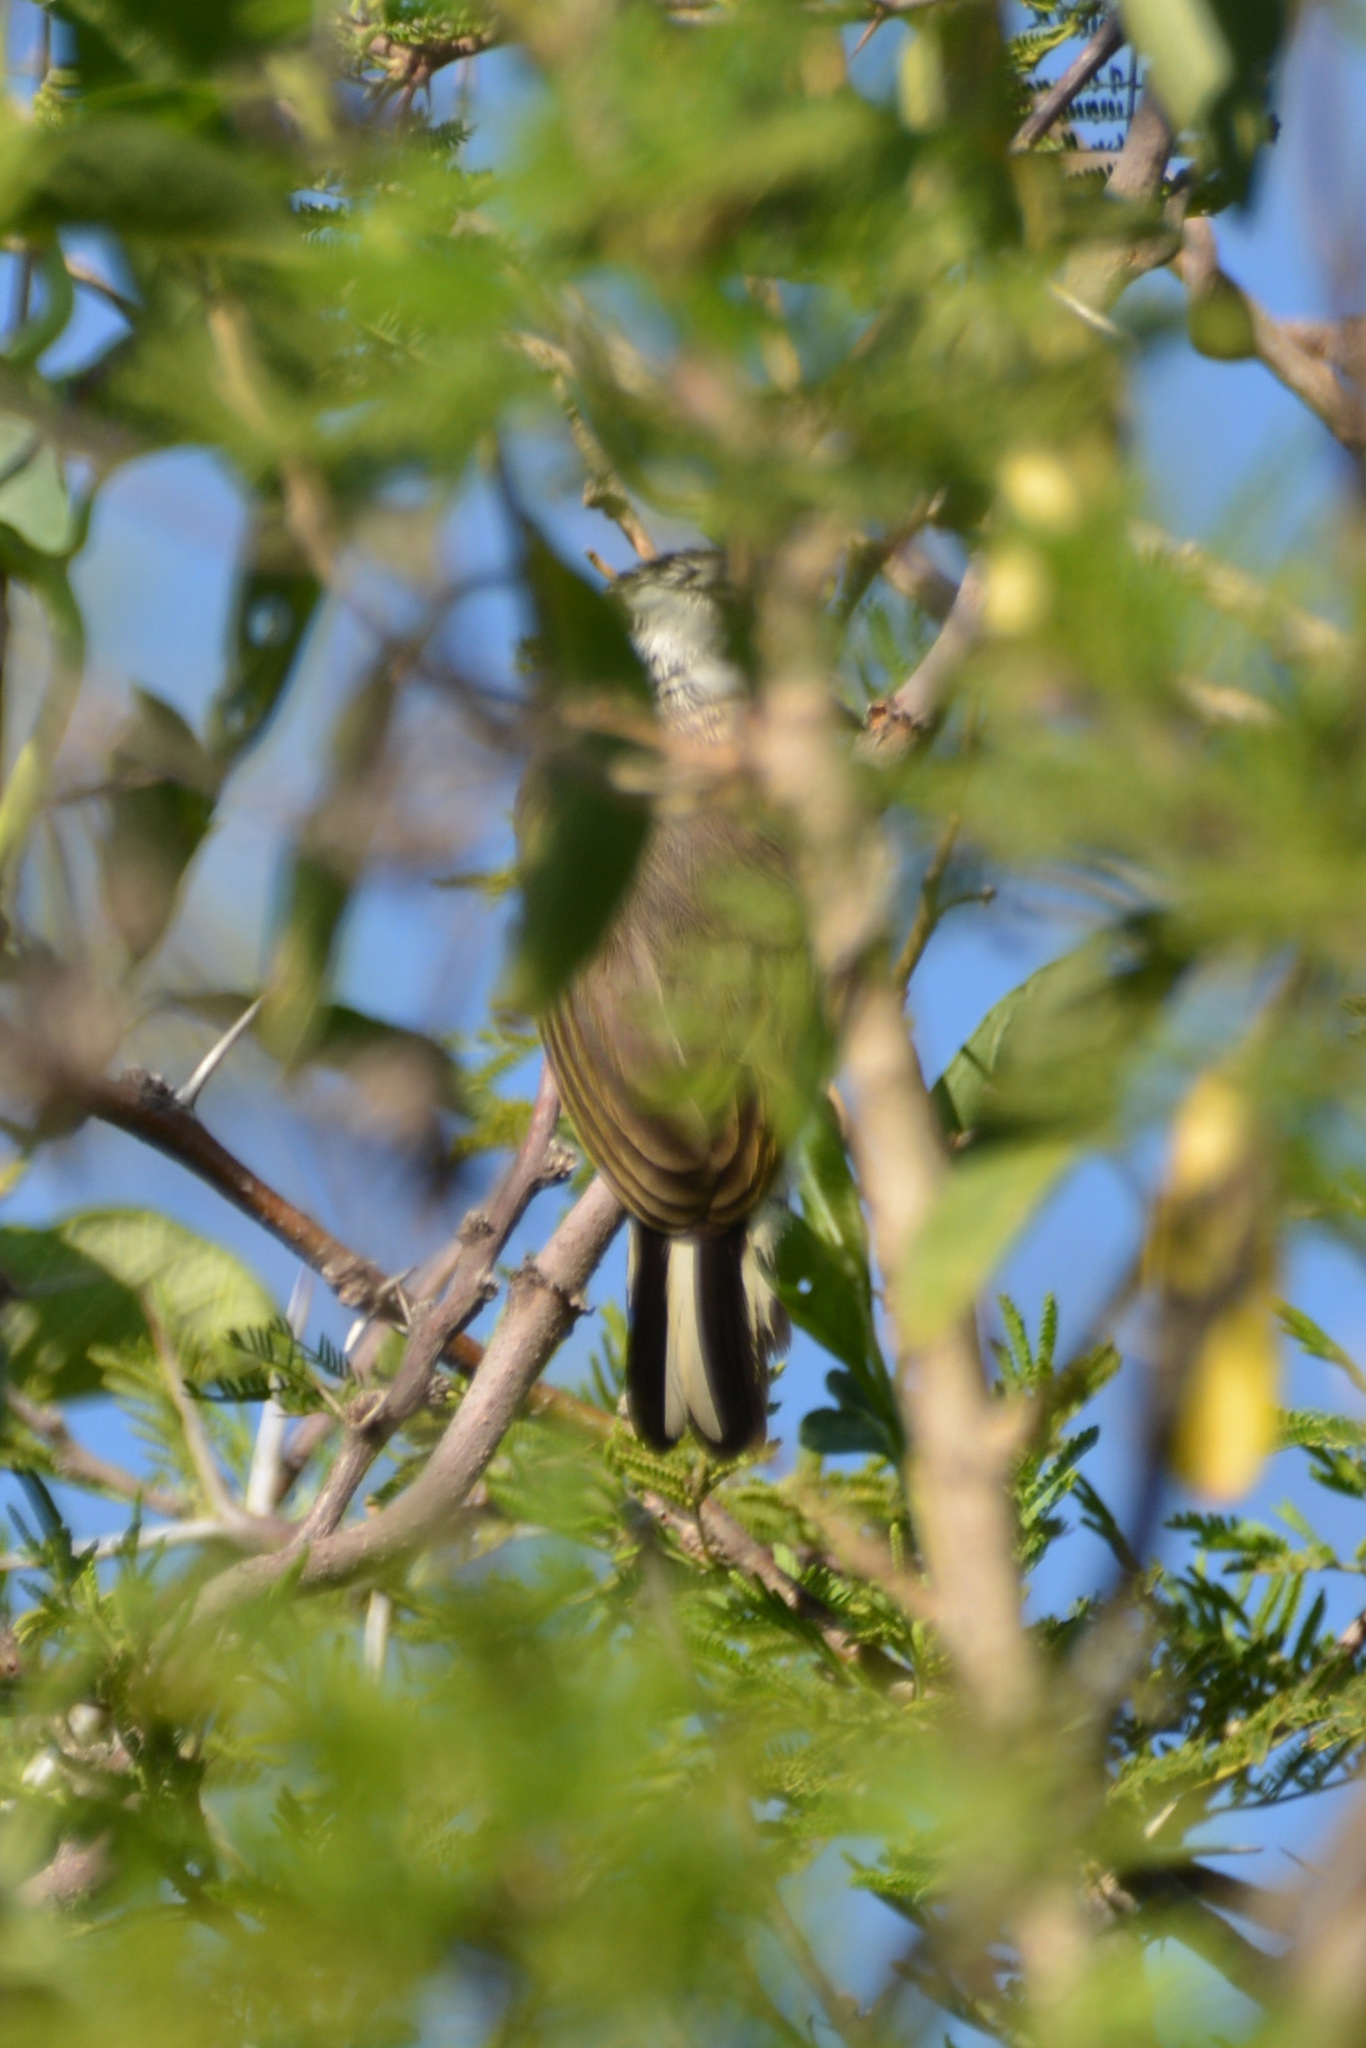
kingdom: Animalia
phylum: Chordata
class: Aves
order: Piciformes
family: Picidae
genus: Picumnus
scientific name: Picumnus cirratus
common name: White-barred piculet
